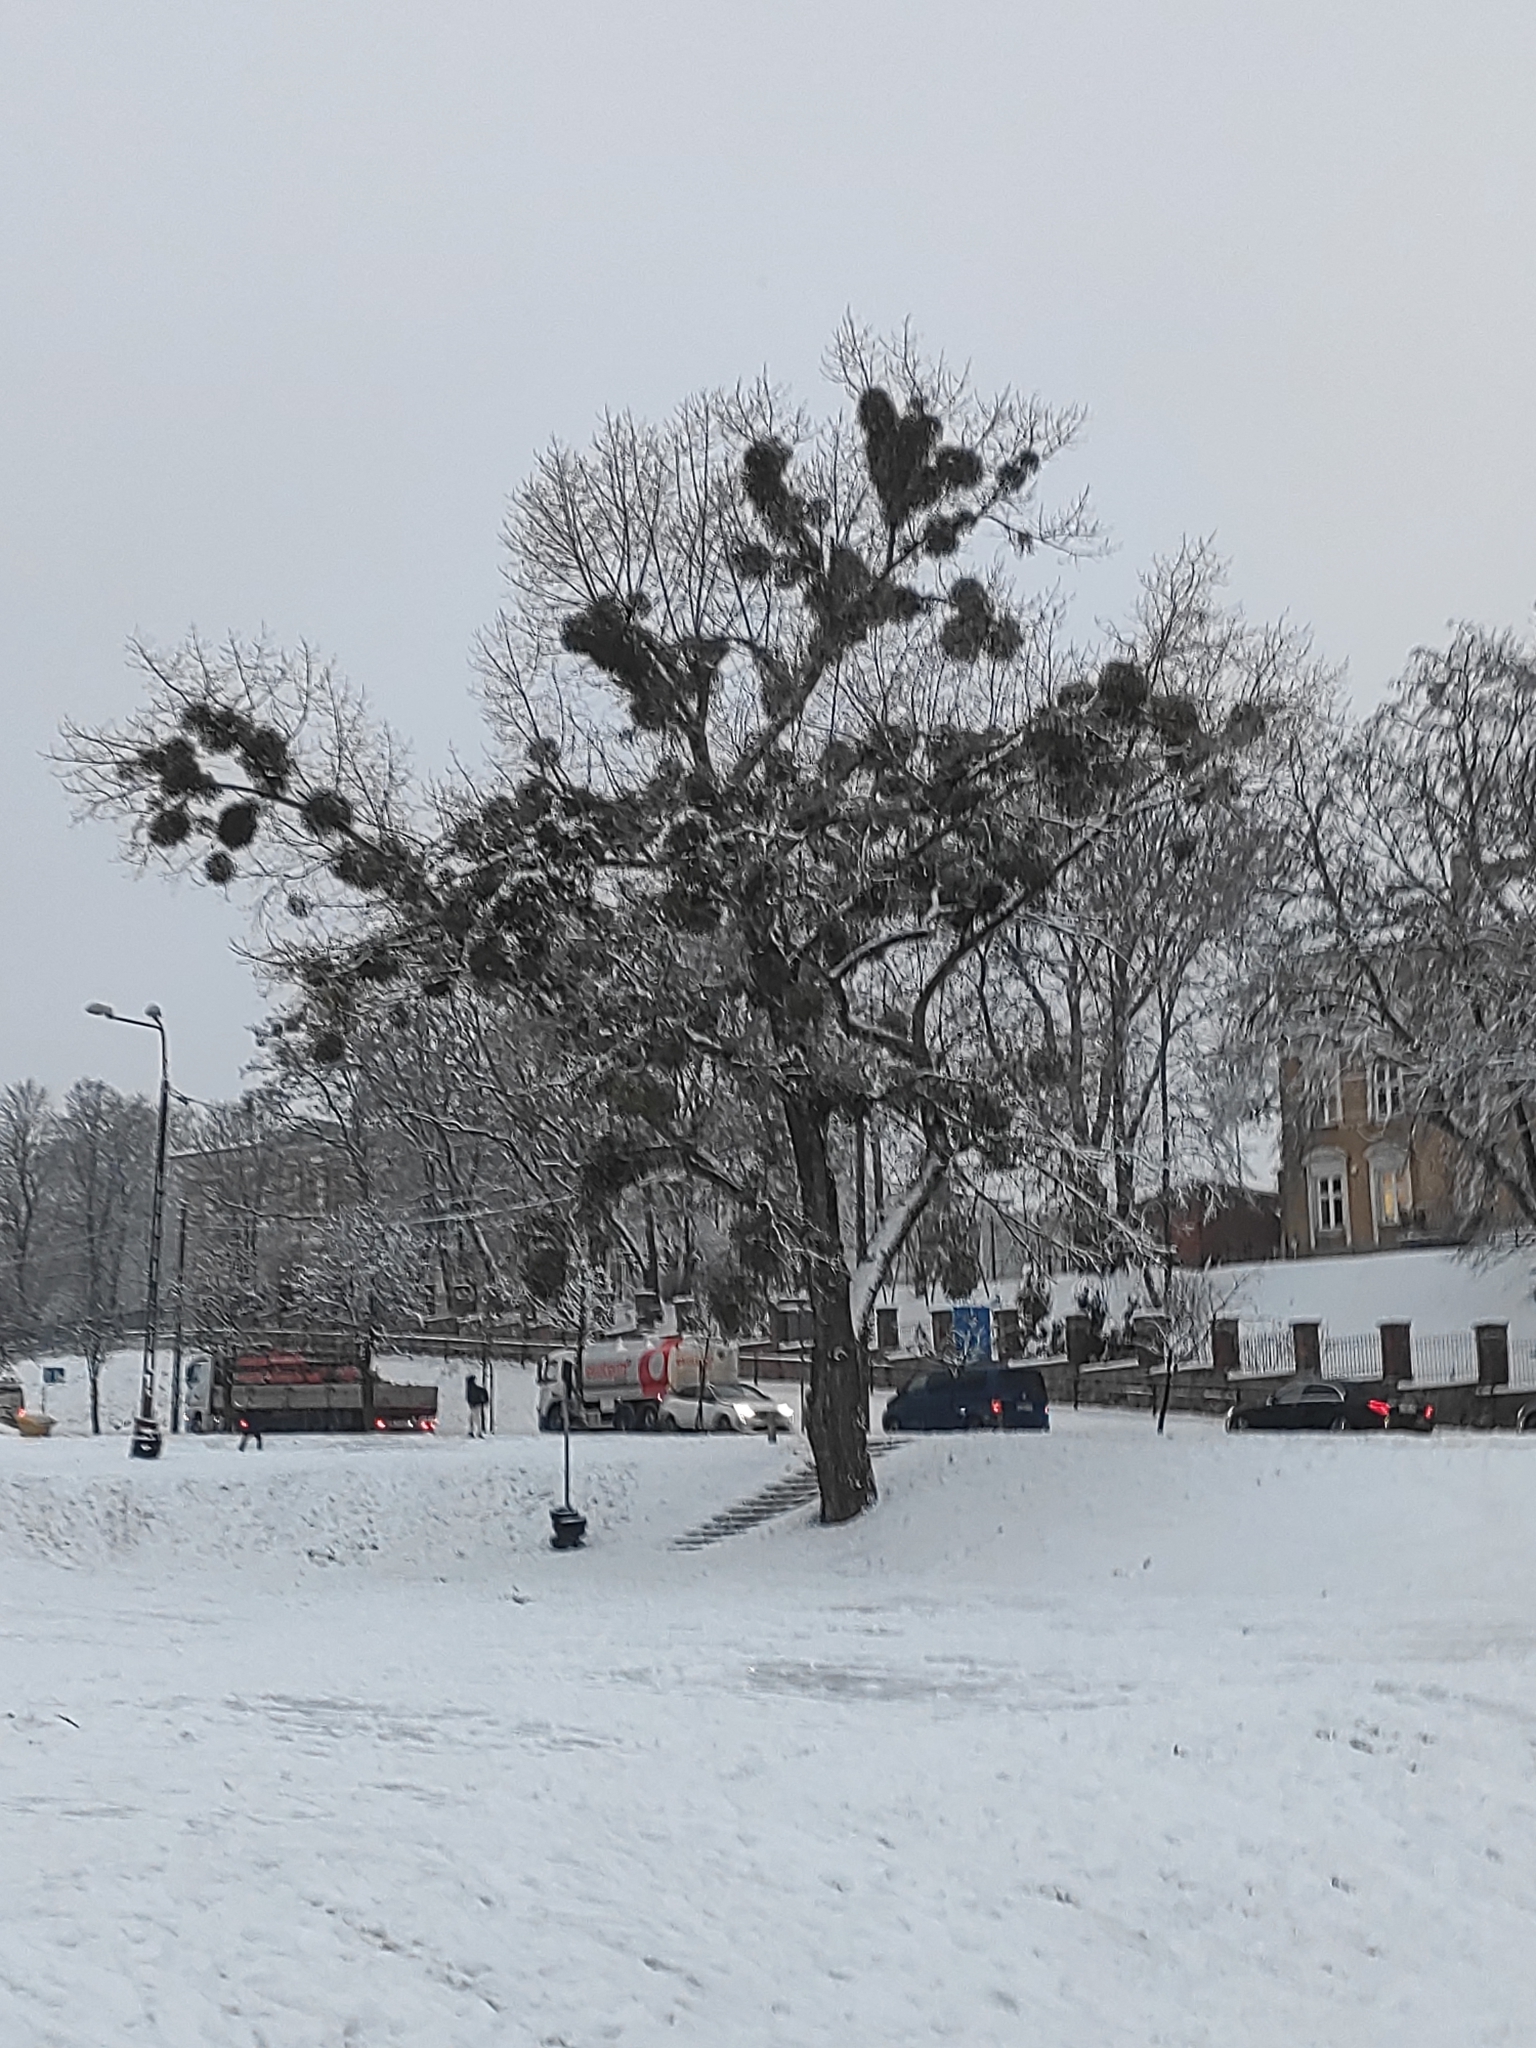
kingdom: Plantae
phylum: Tracheophyta
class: Magnoliopsida
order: Santalales
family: Viscaceae
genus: Viscum
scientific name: Viscum album
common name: Mistletoe
